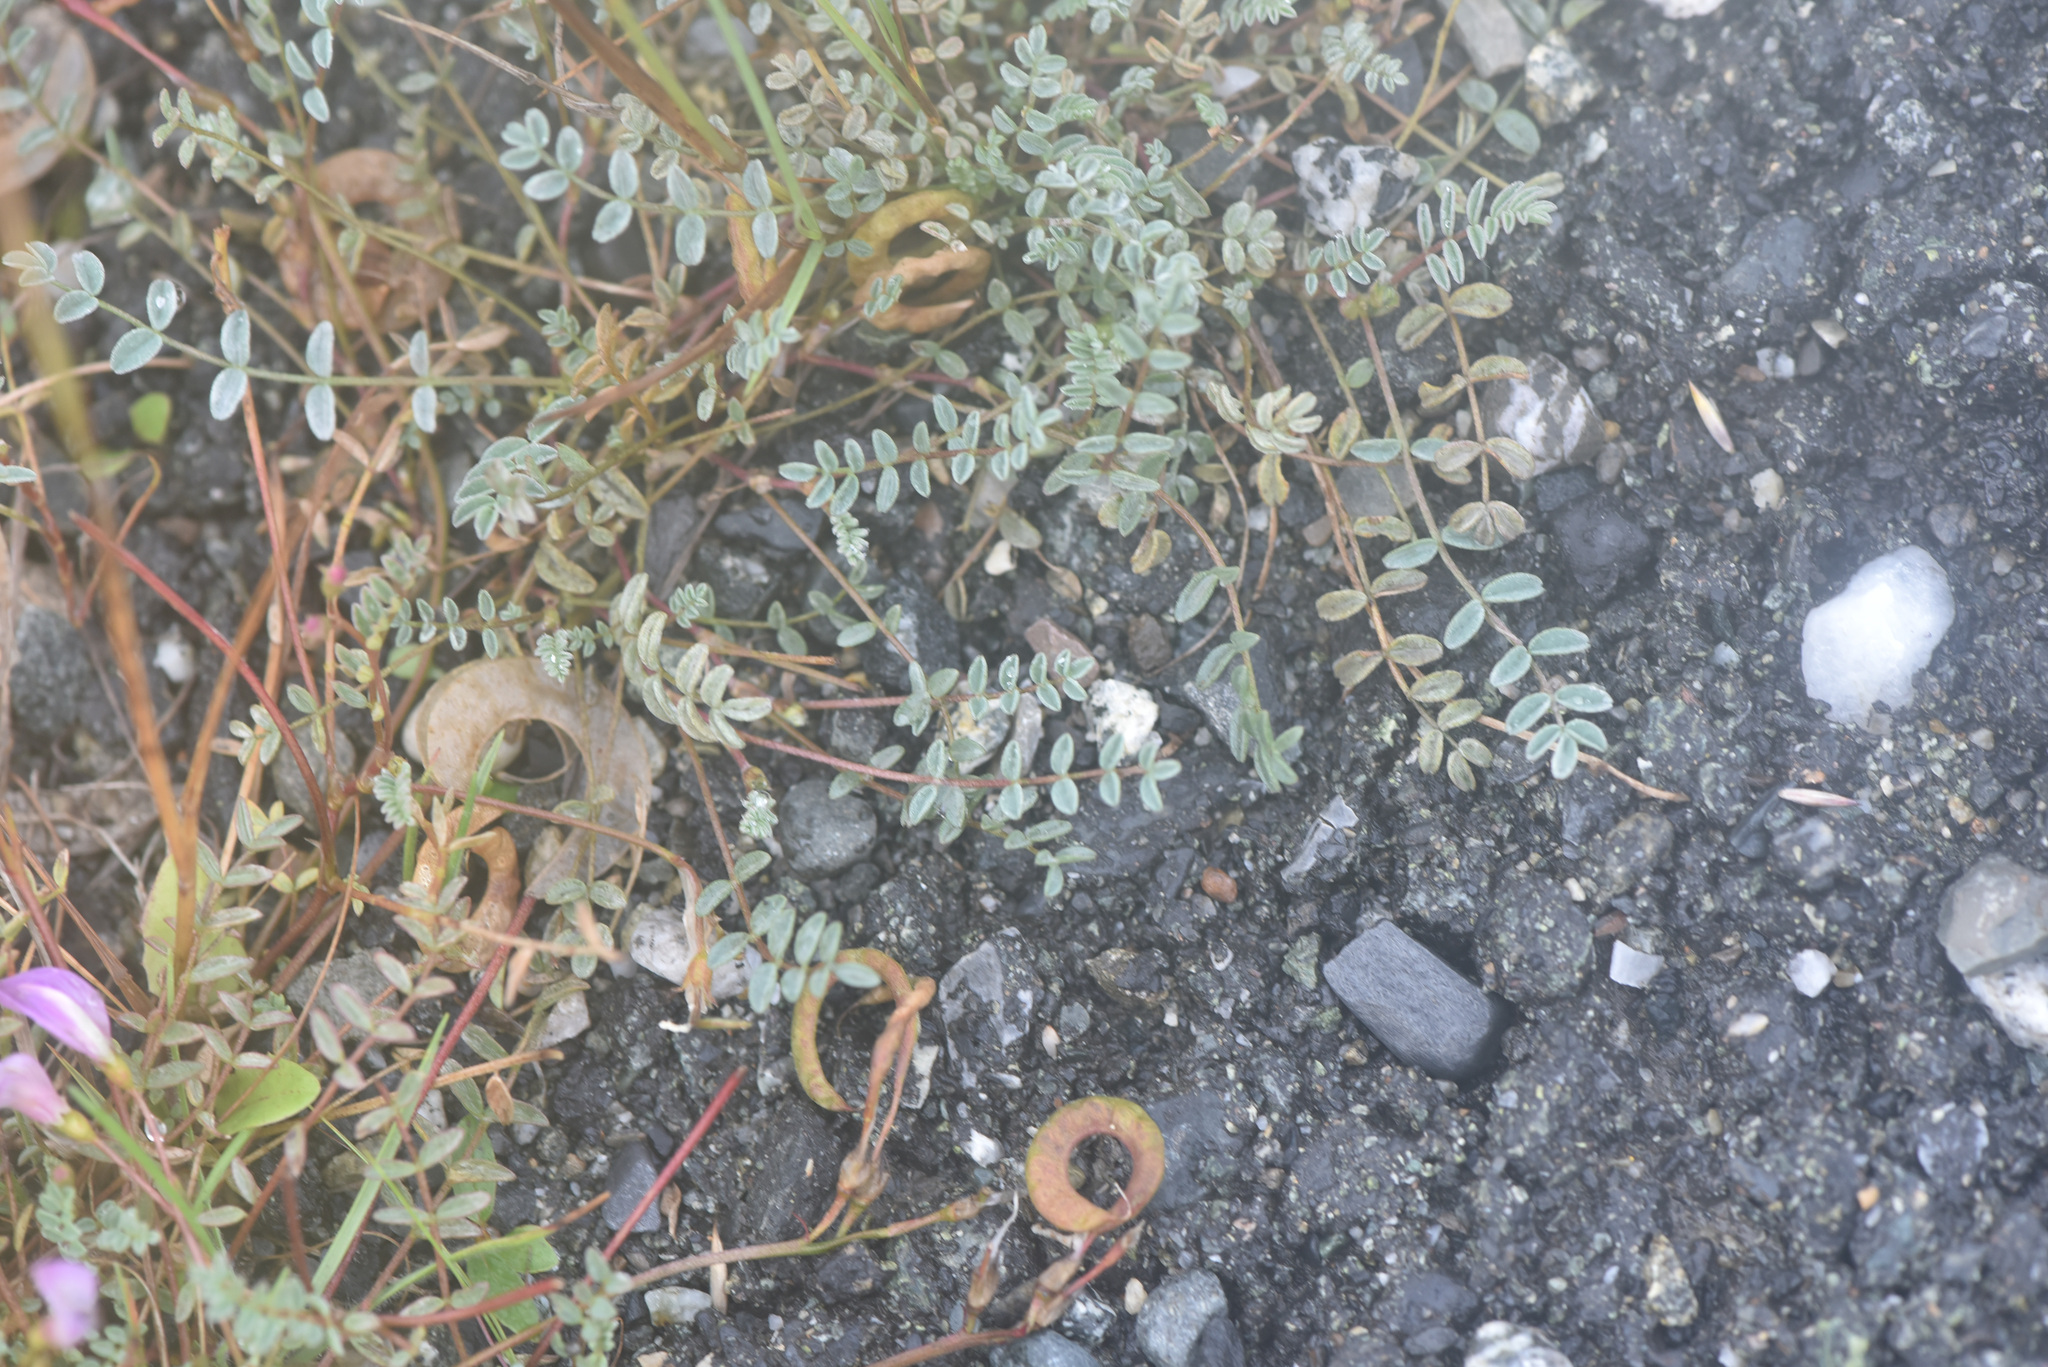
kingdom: Plantae
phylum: Tracheophyta
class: Magnoliopsida
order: Fabales
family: Fabaceae
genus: Astragalus
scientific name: Astragalus nutzotinensis
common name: Nutzotin milk-vetch
